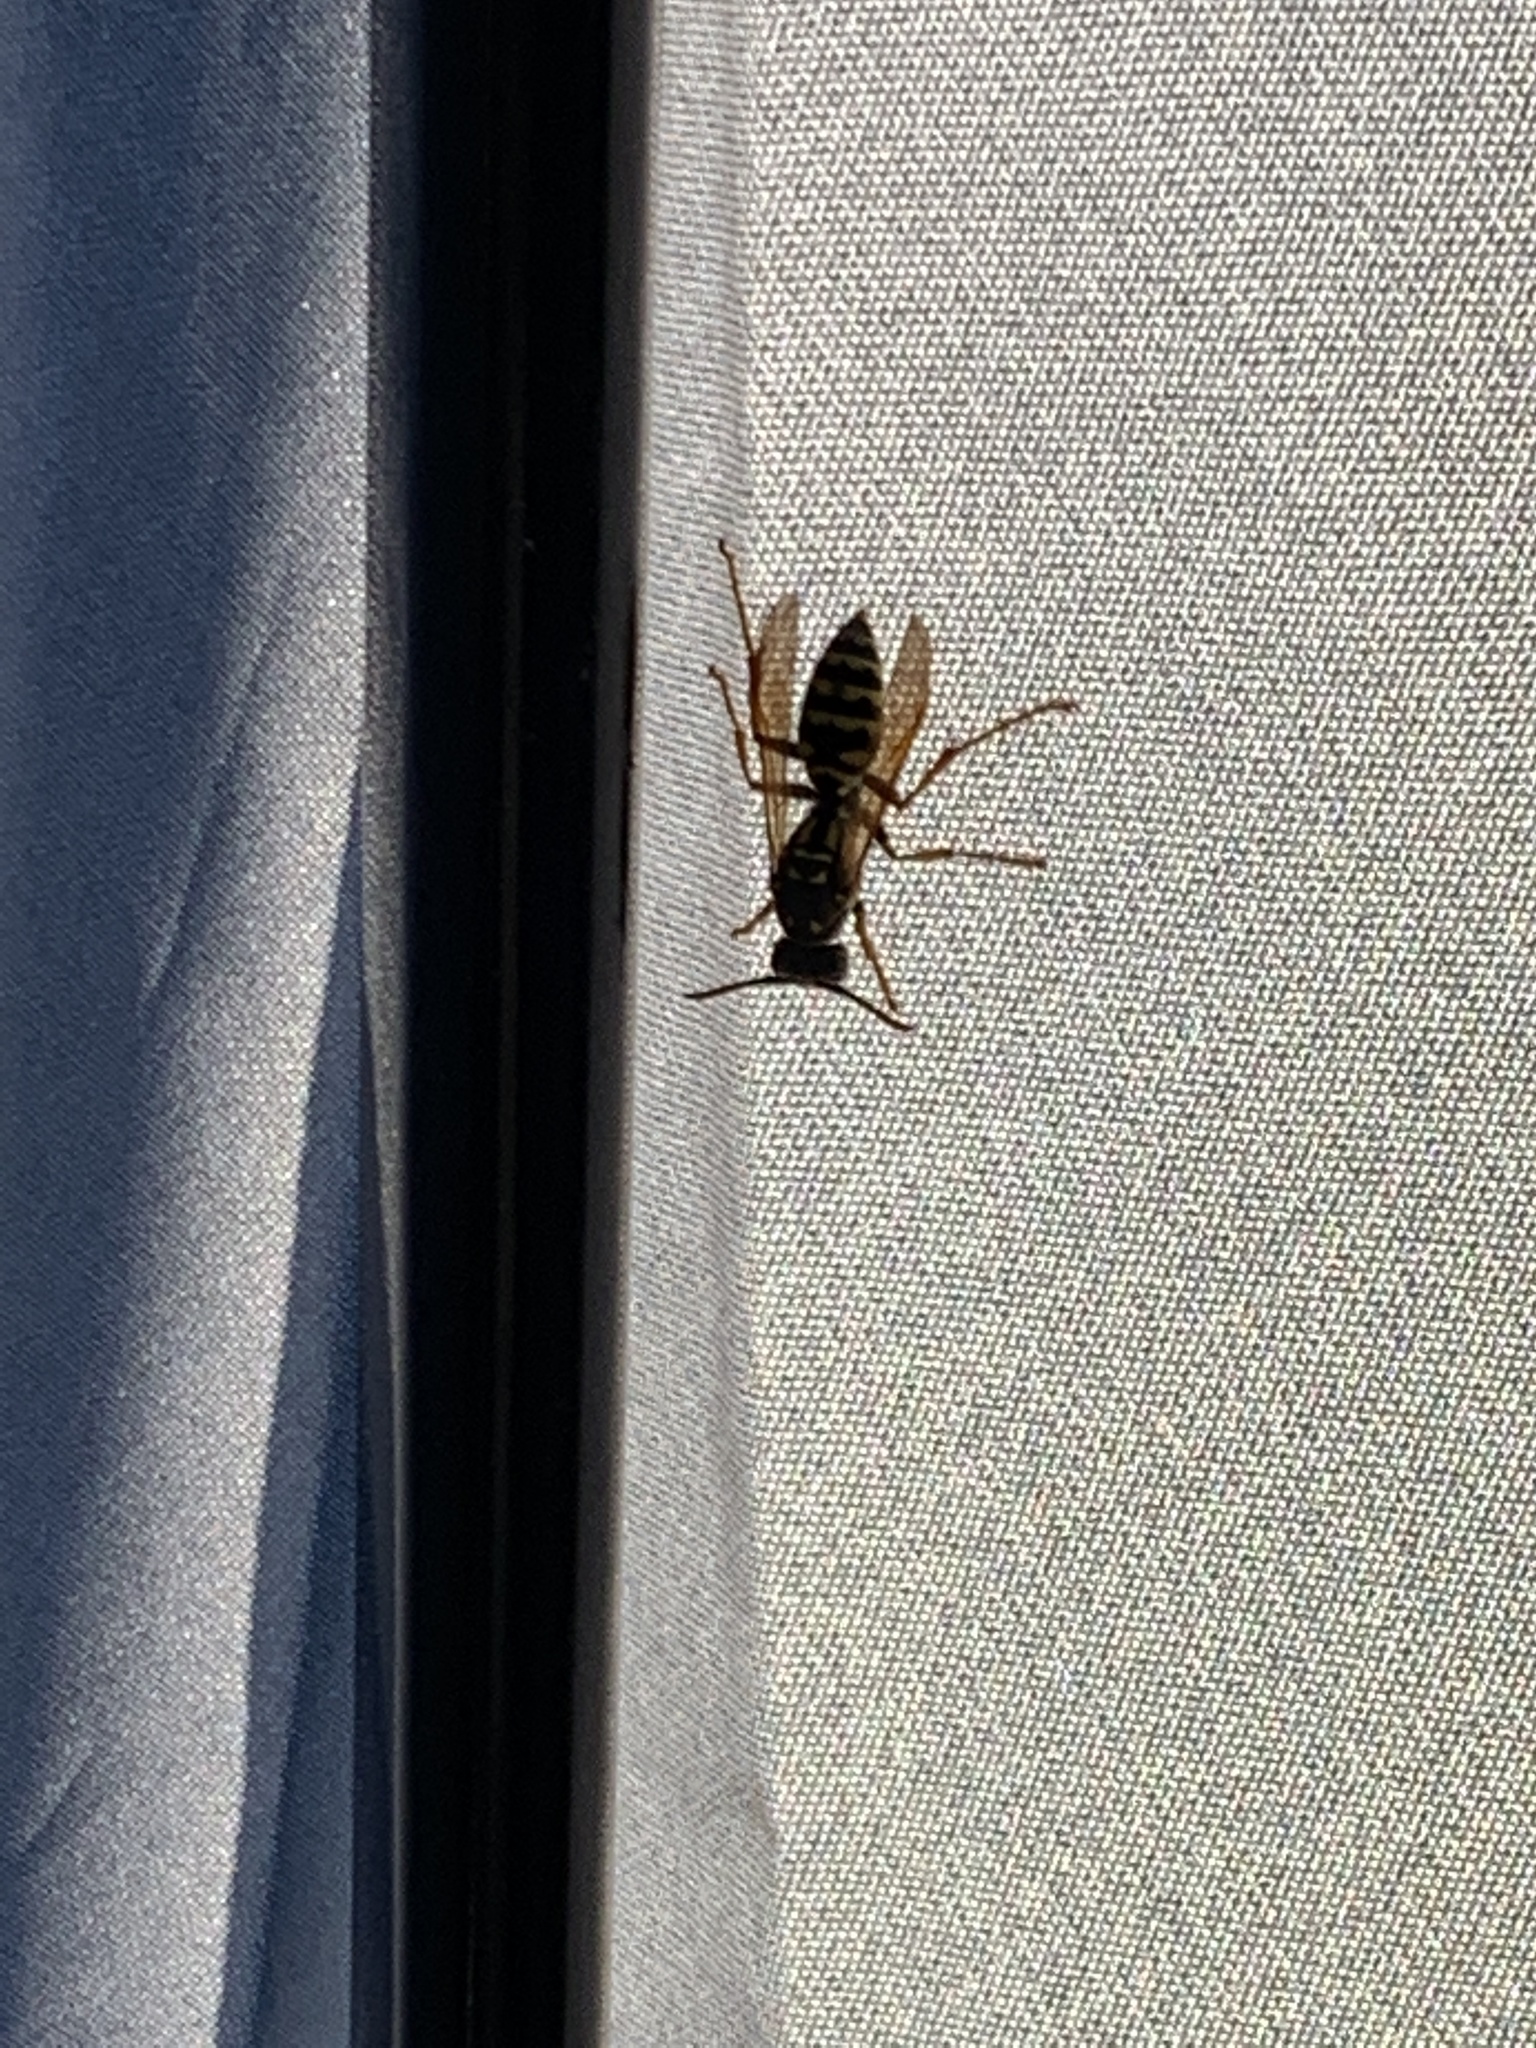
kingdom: Animalia
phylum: Arthropoda
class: Insecta
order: Hymenoptera
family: Eumenidae
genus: Polistes
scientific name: Polistes dominula
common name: Paper wasp
